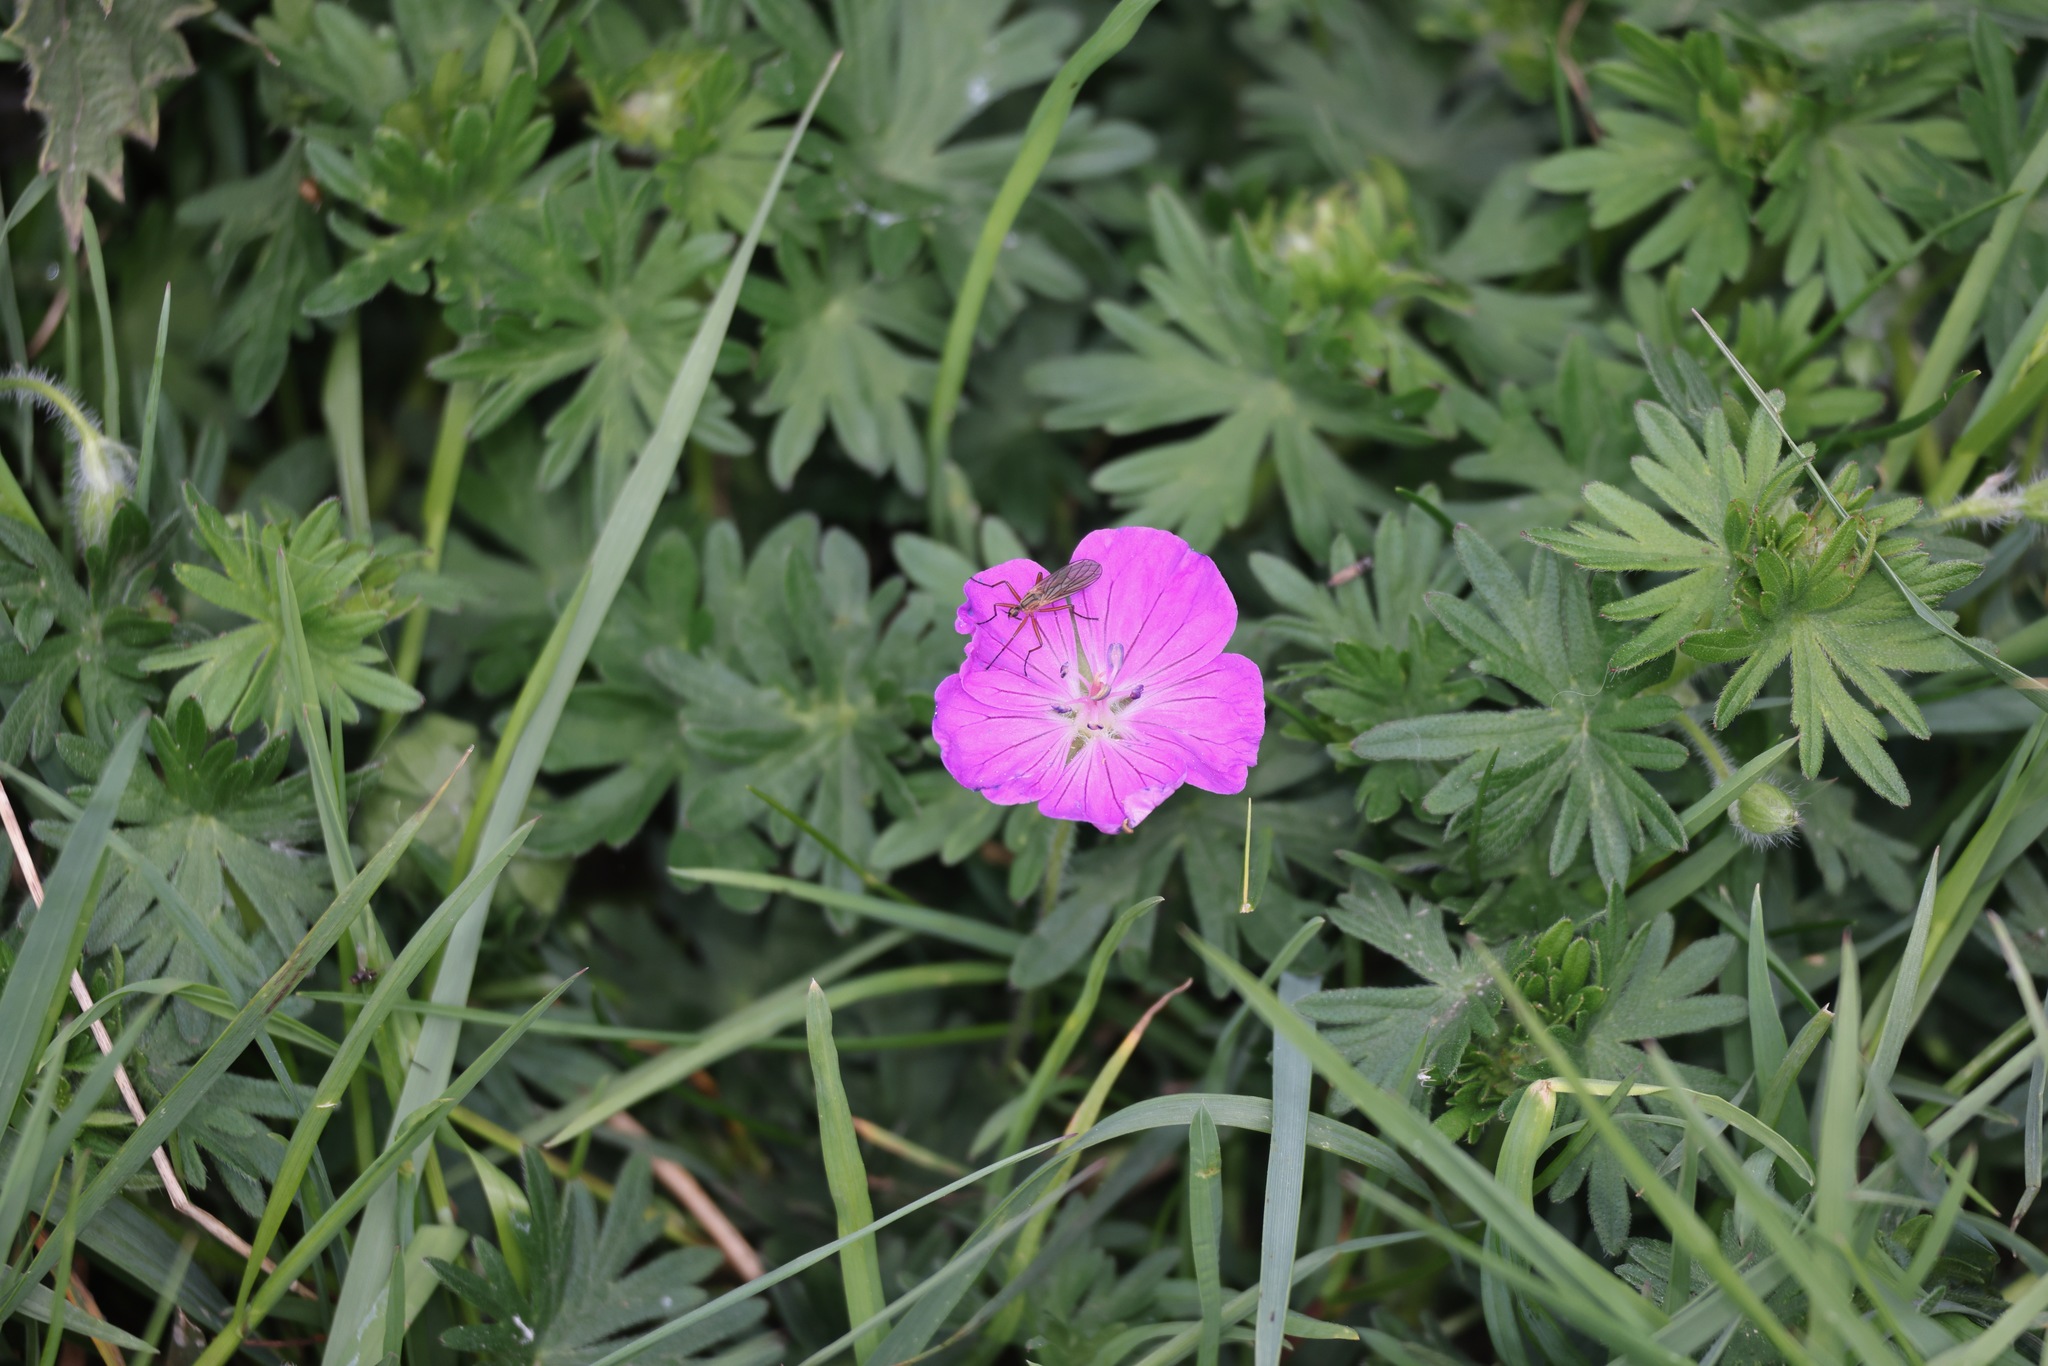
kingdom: Plantae
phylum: Tracheophyta
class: Magnoliopsida
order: Geraniales
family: Geraniaceae
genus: Geranium
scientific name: Geranium sanguineum
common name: Bloody crane's-bill
